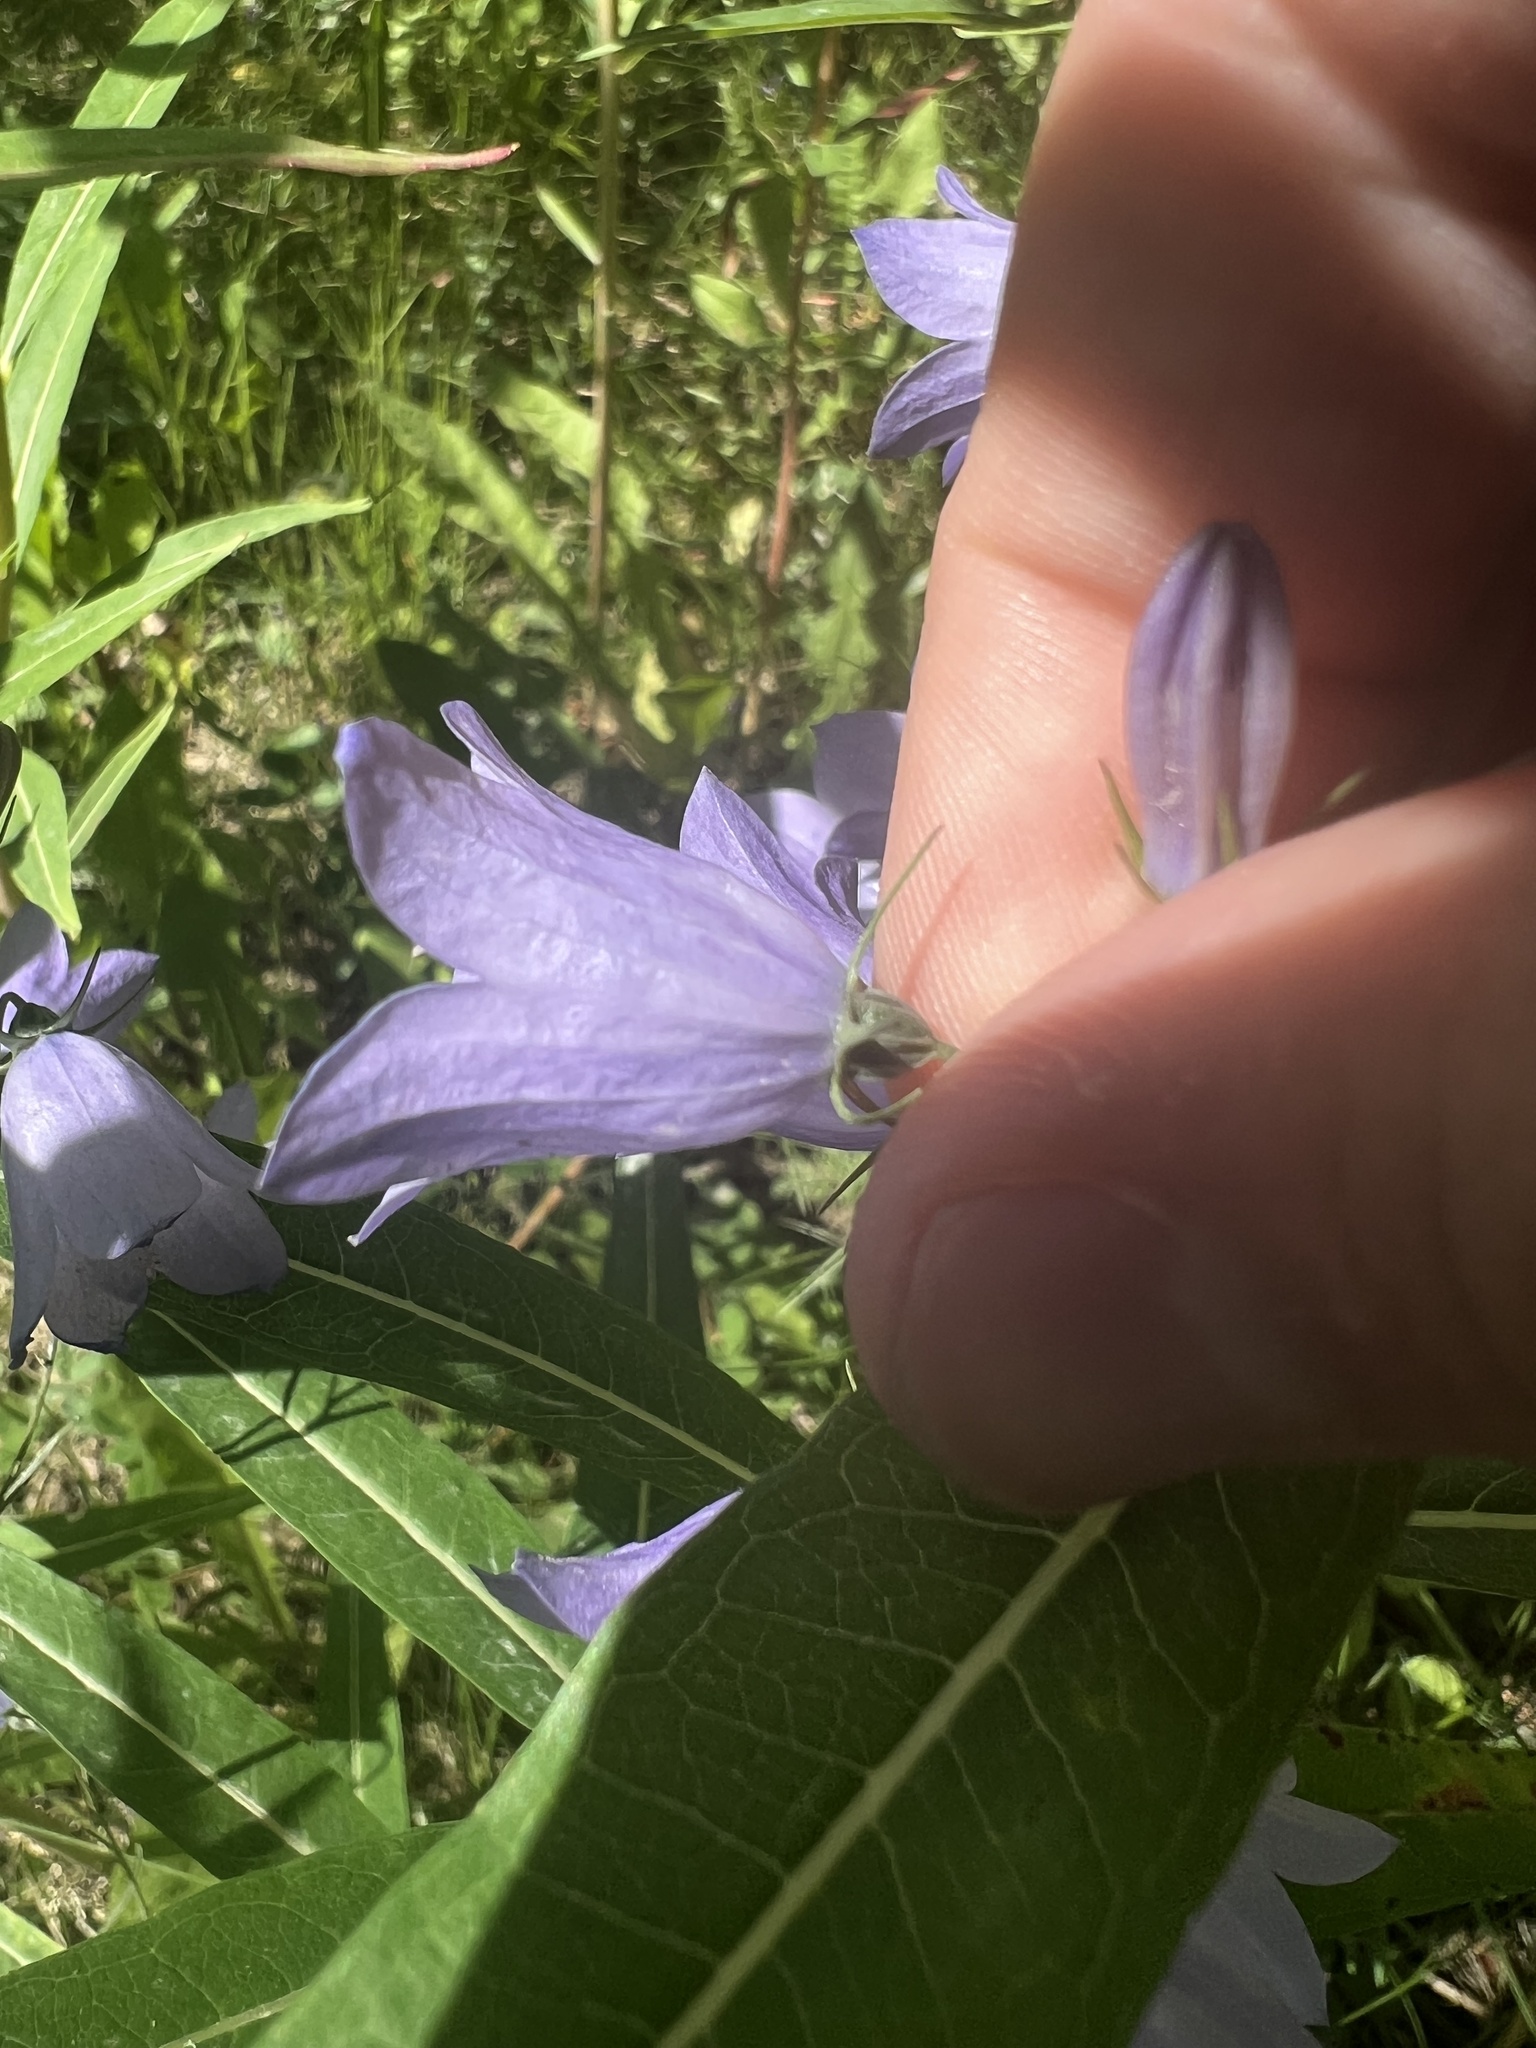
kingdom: Plantae
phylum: Tracheophyta
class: Magnoliopsida
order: Asterales
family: Campanulaceae
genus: Campanula
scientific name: Campanula alaskana
